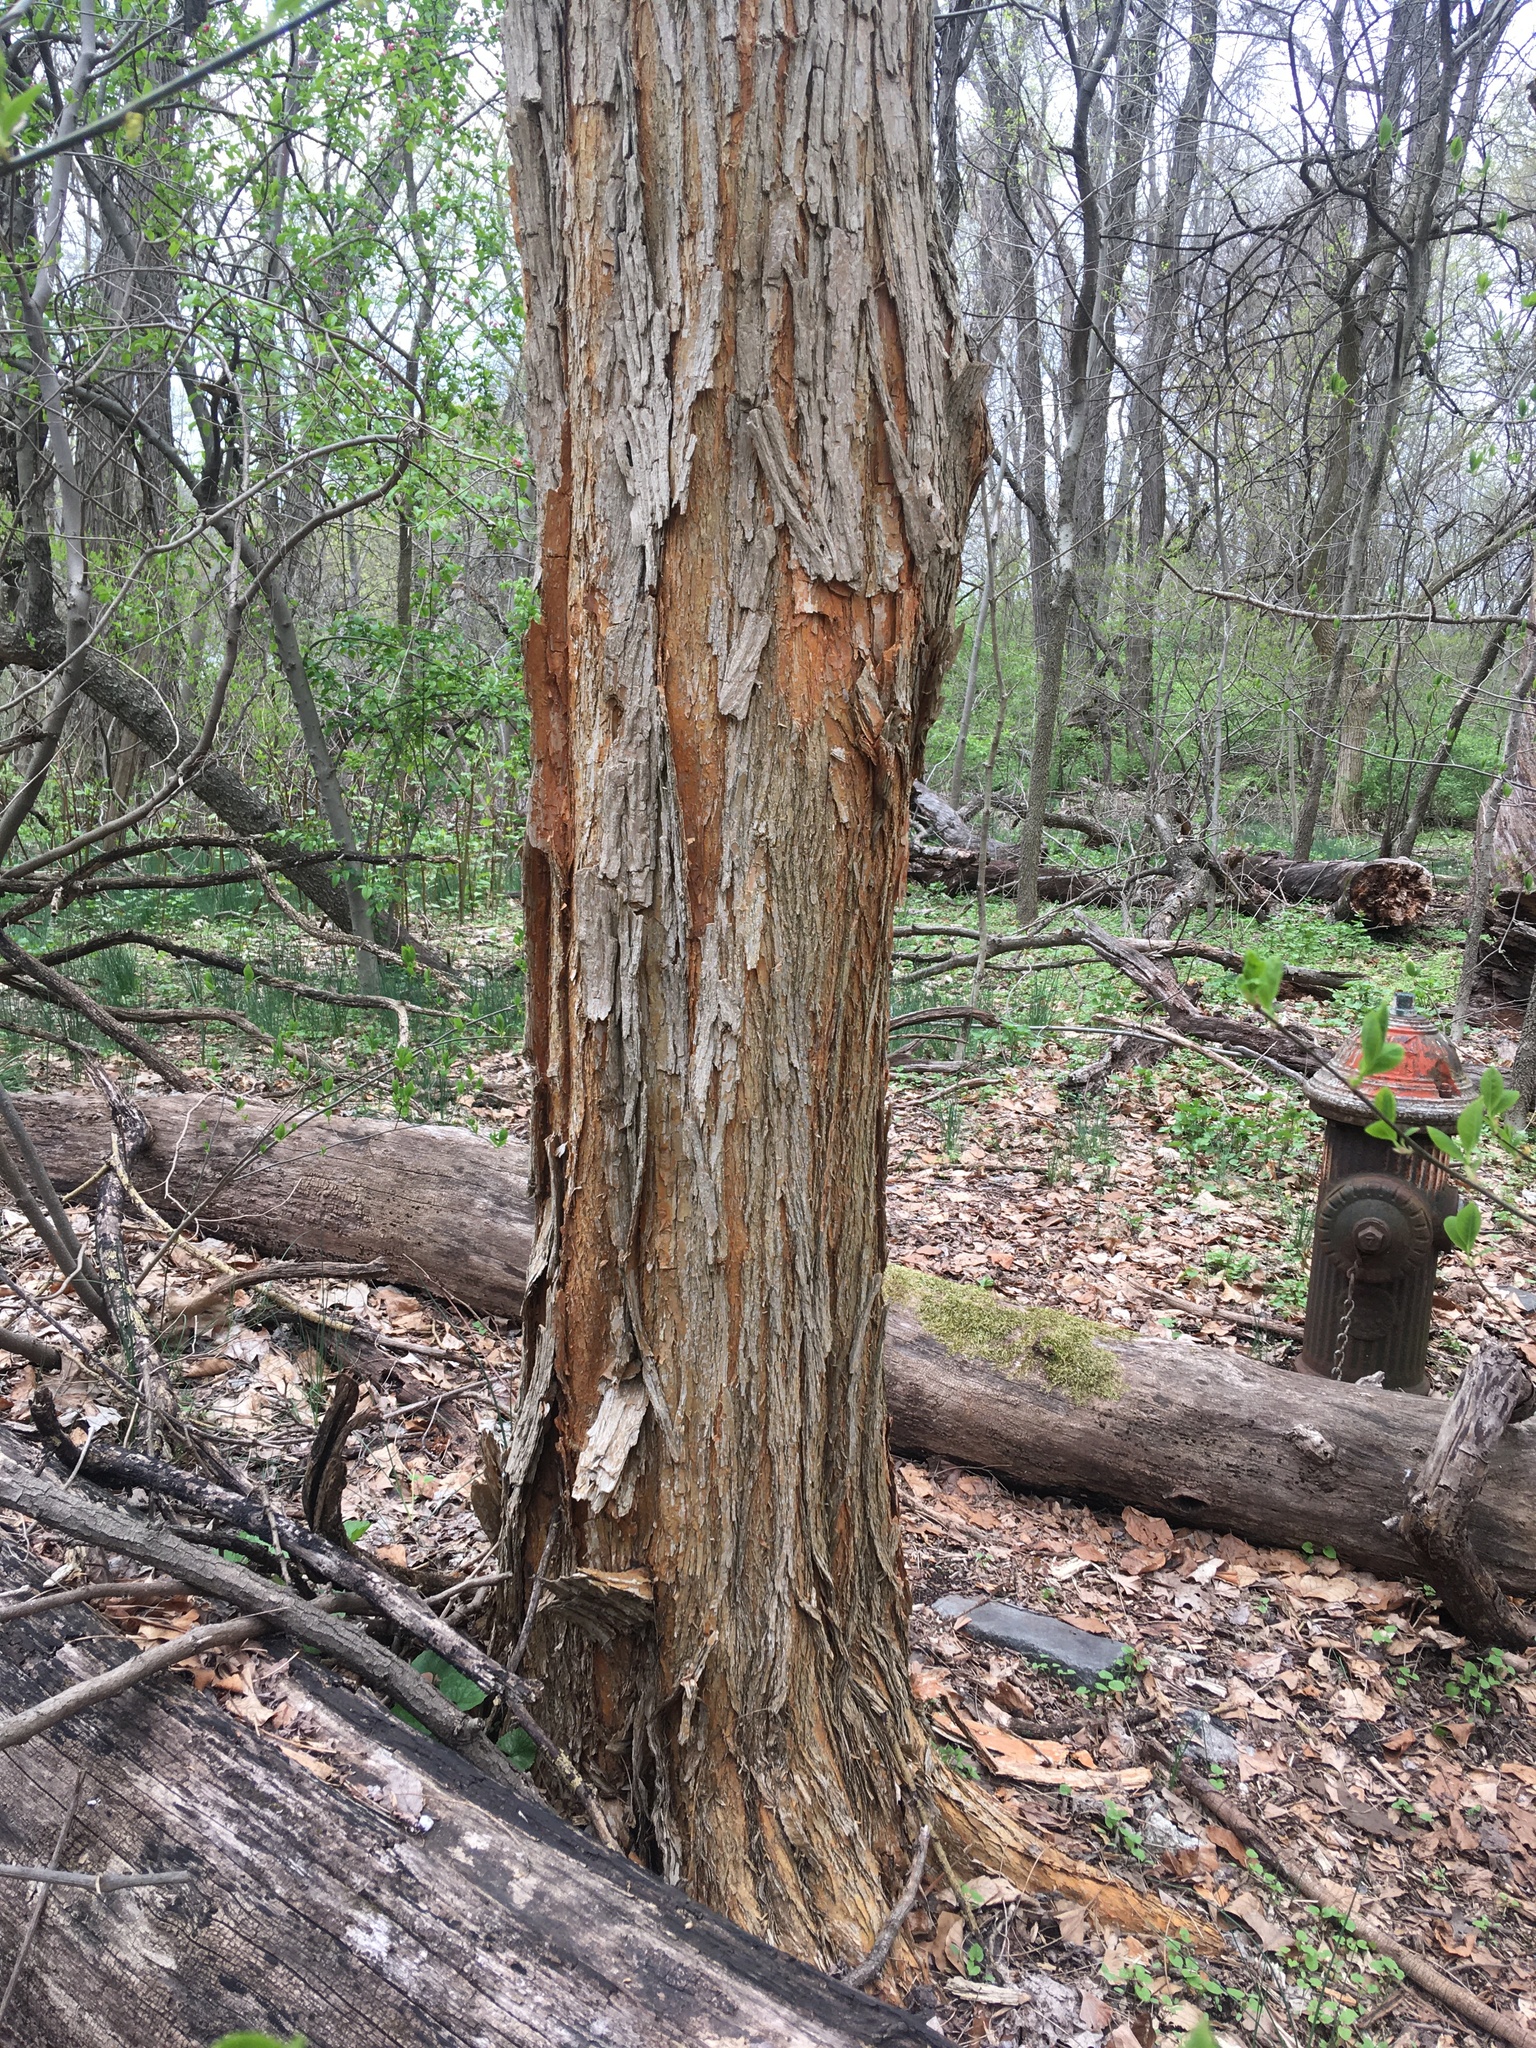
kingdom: Plantae
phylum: Tracheophyta
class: Magnoliopsida
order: Rosales
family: Moraceae
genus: Maclura
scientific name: Maclura pomifera
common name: Osage-orange
